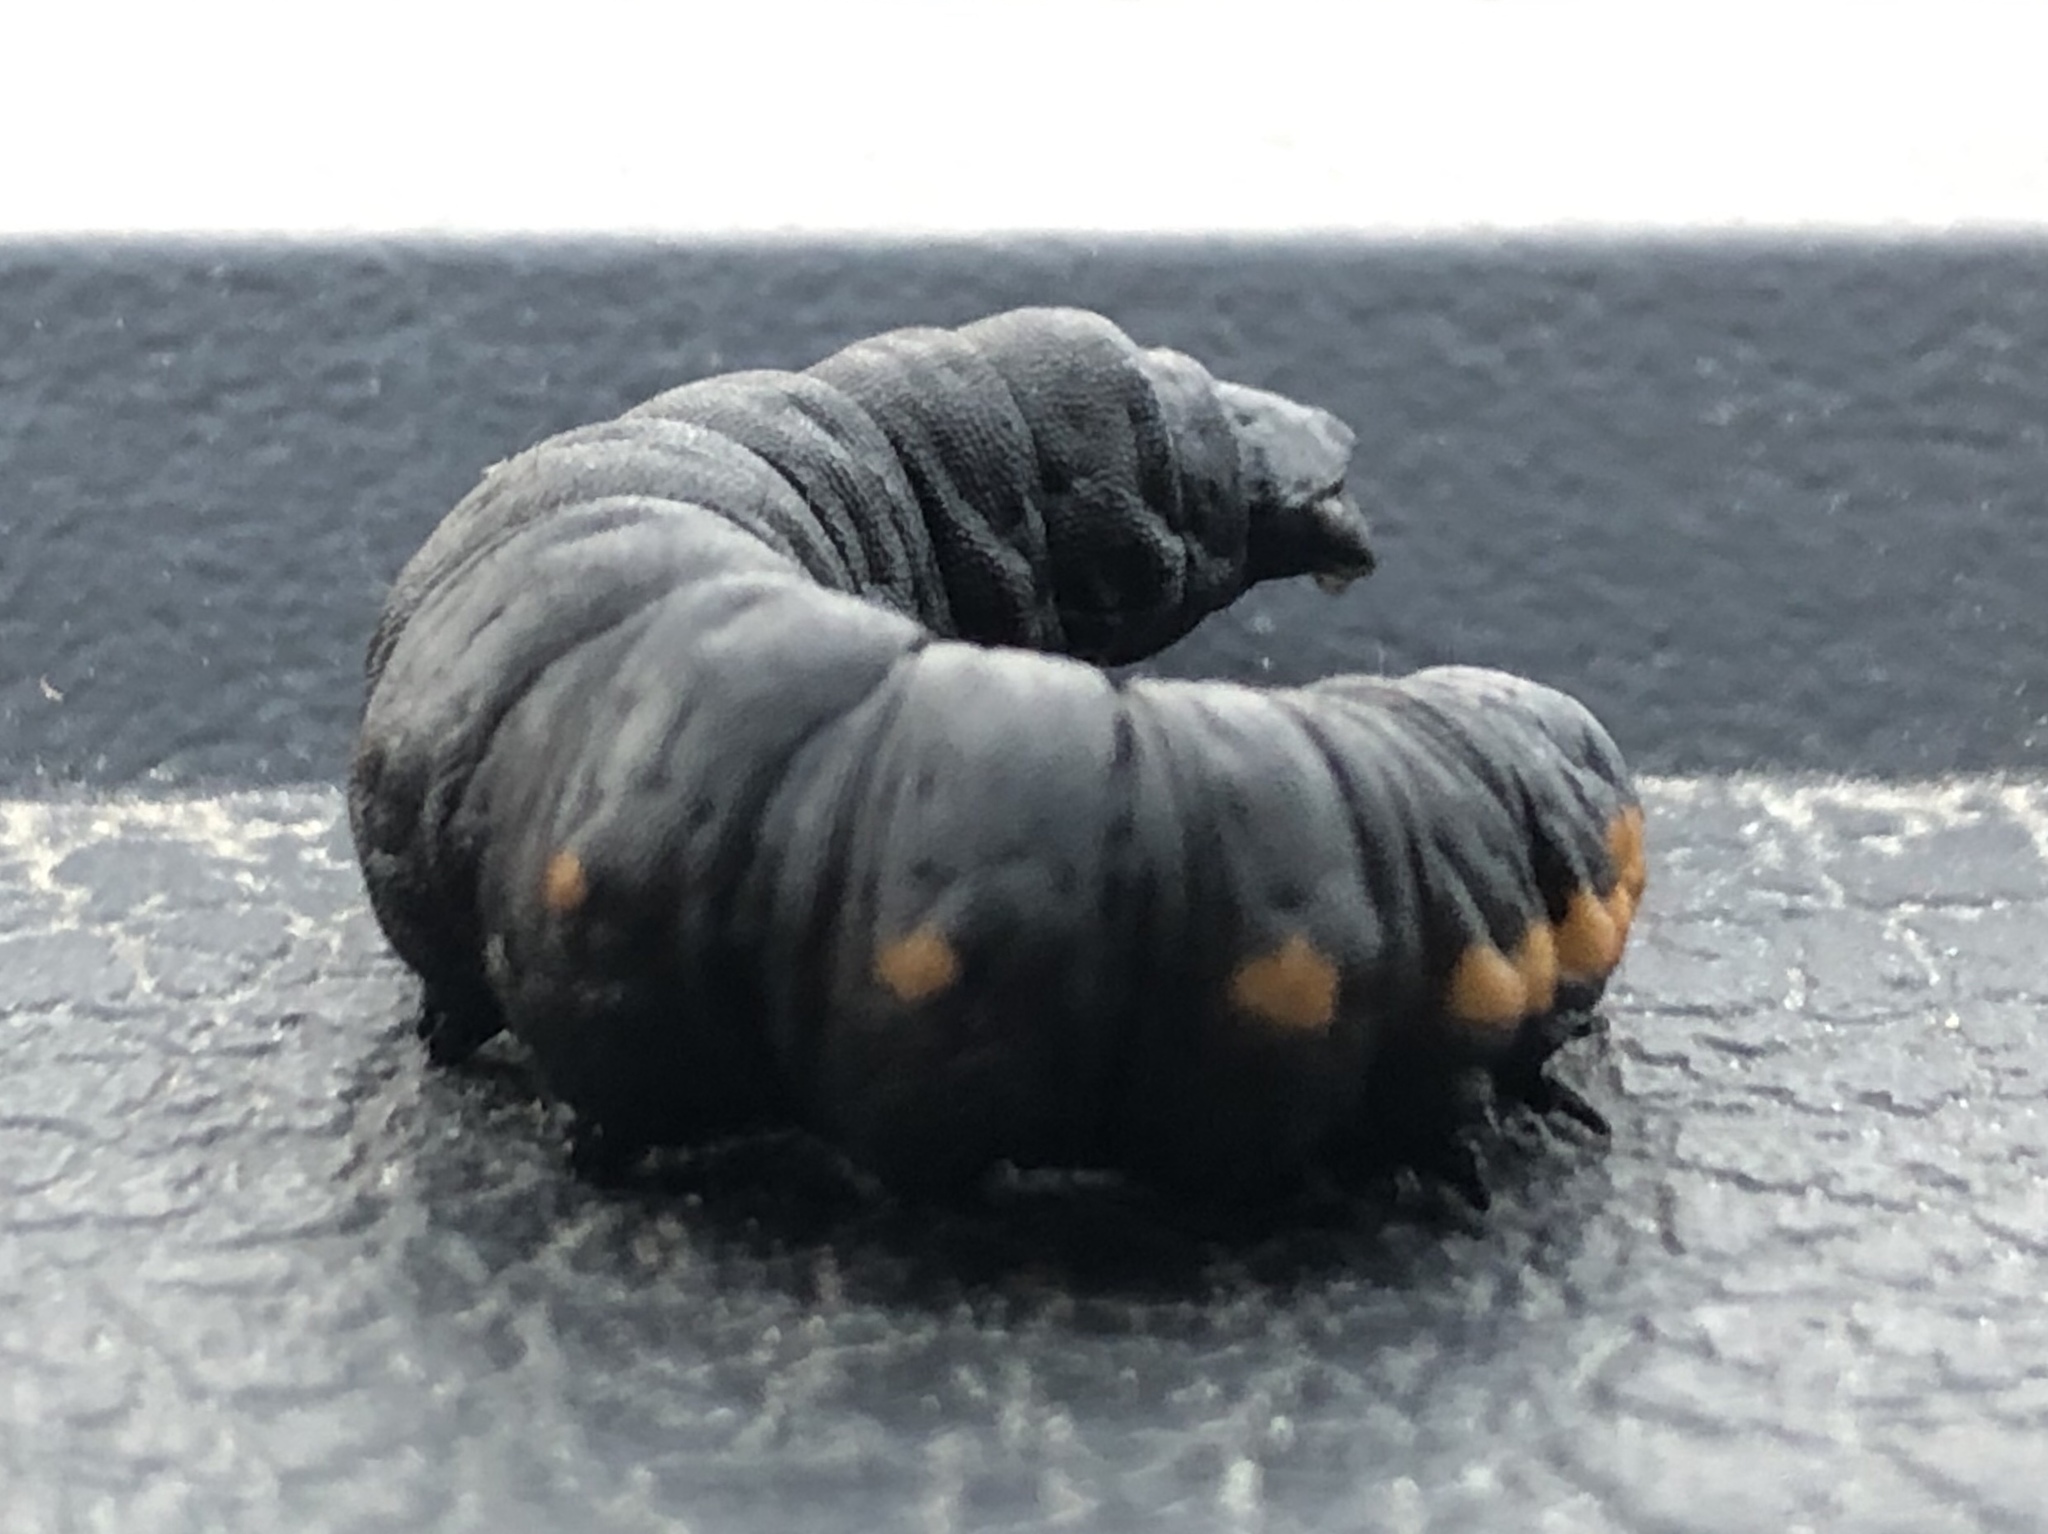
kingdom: Animalia
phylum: Arthropoda
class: Insecta
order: Lepidoptera
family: Noctuidae
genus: Cucullia
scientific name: Cucullia intermedia
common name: Goldenrod cutworm
